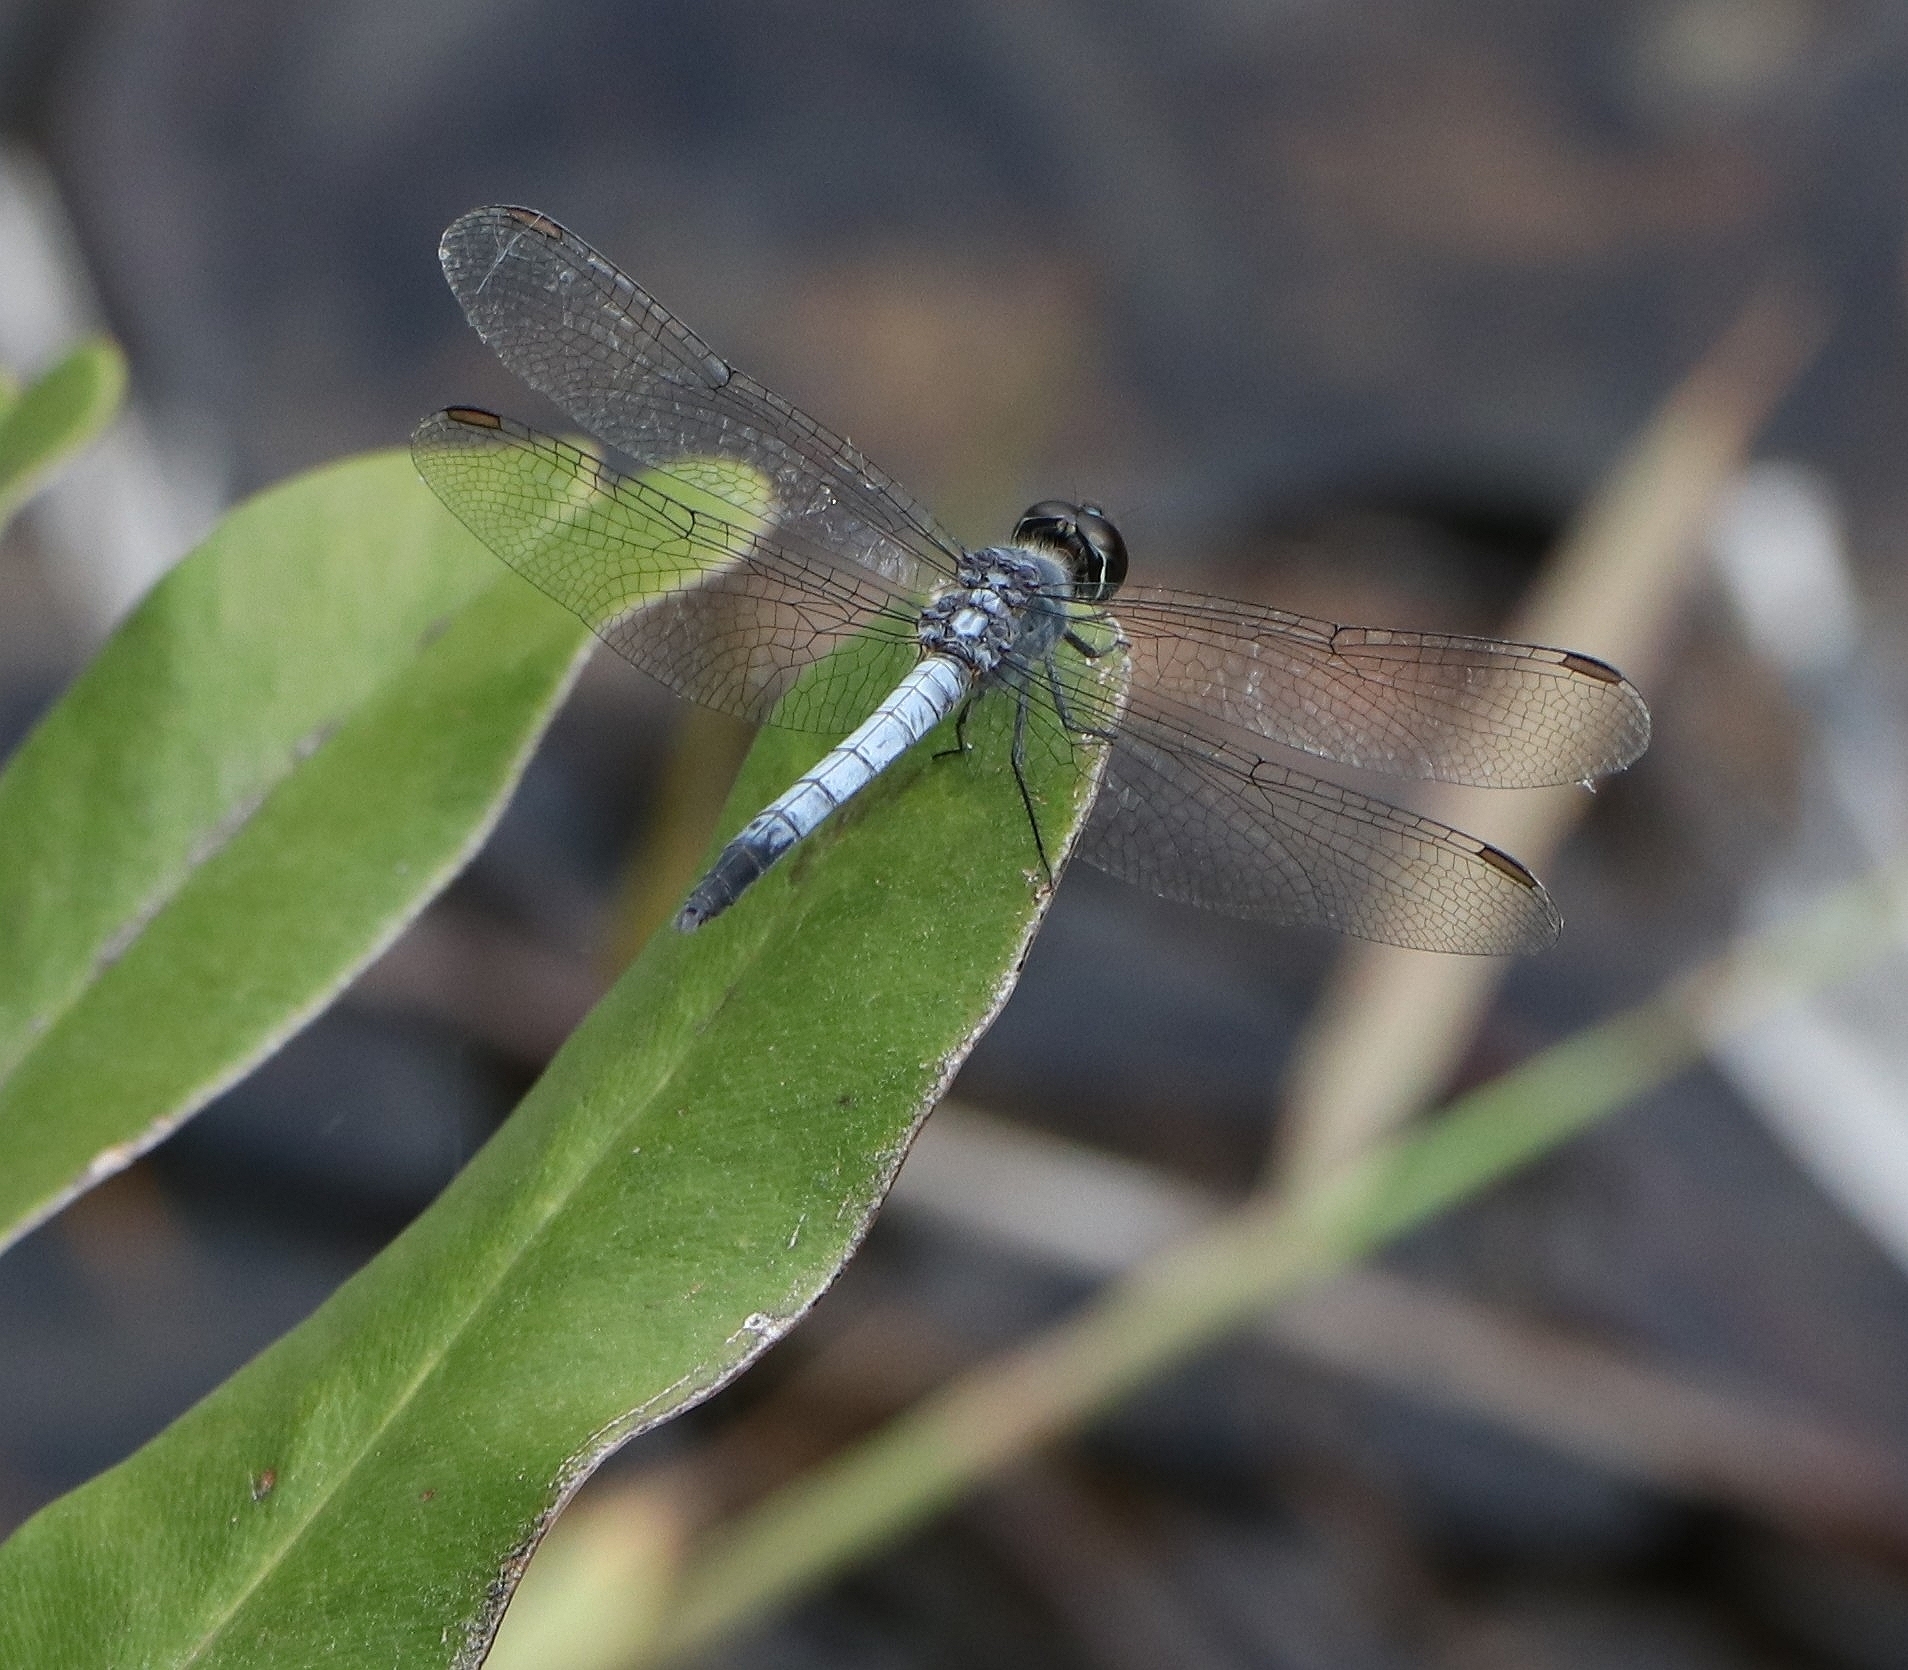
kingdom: Animalia
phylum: Arthropoda
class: Insecta
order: Odonata
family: Libellulidae
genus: Brachydiplax
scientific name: Brachydiplax sobrina
